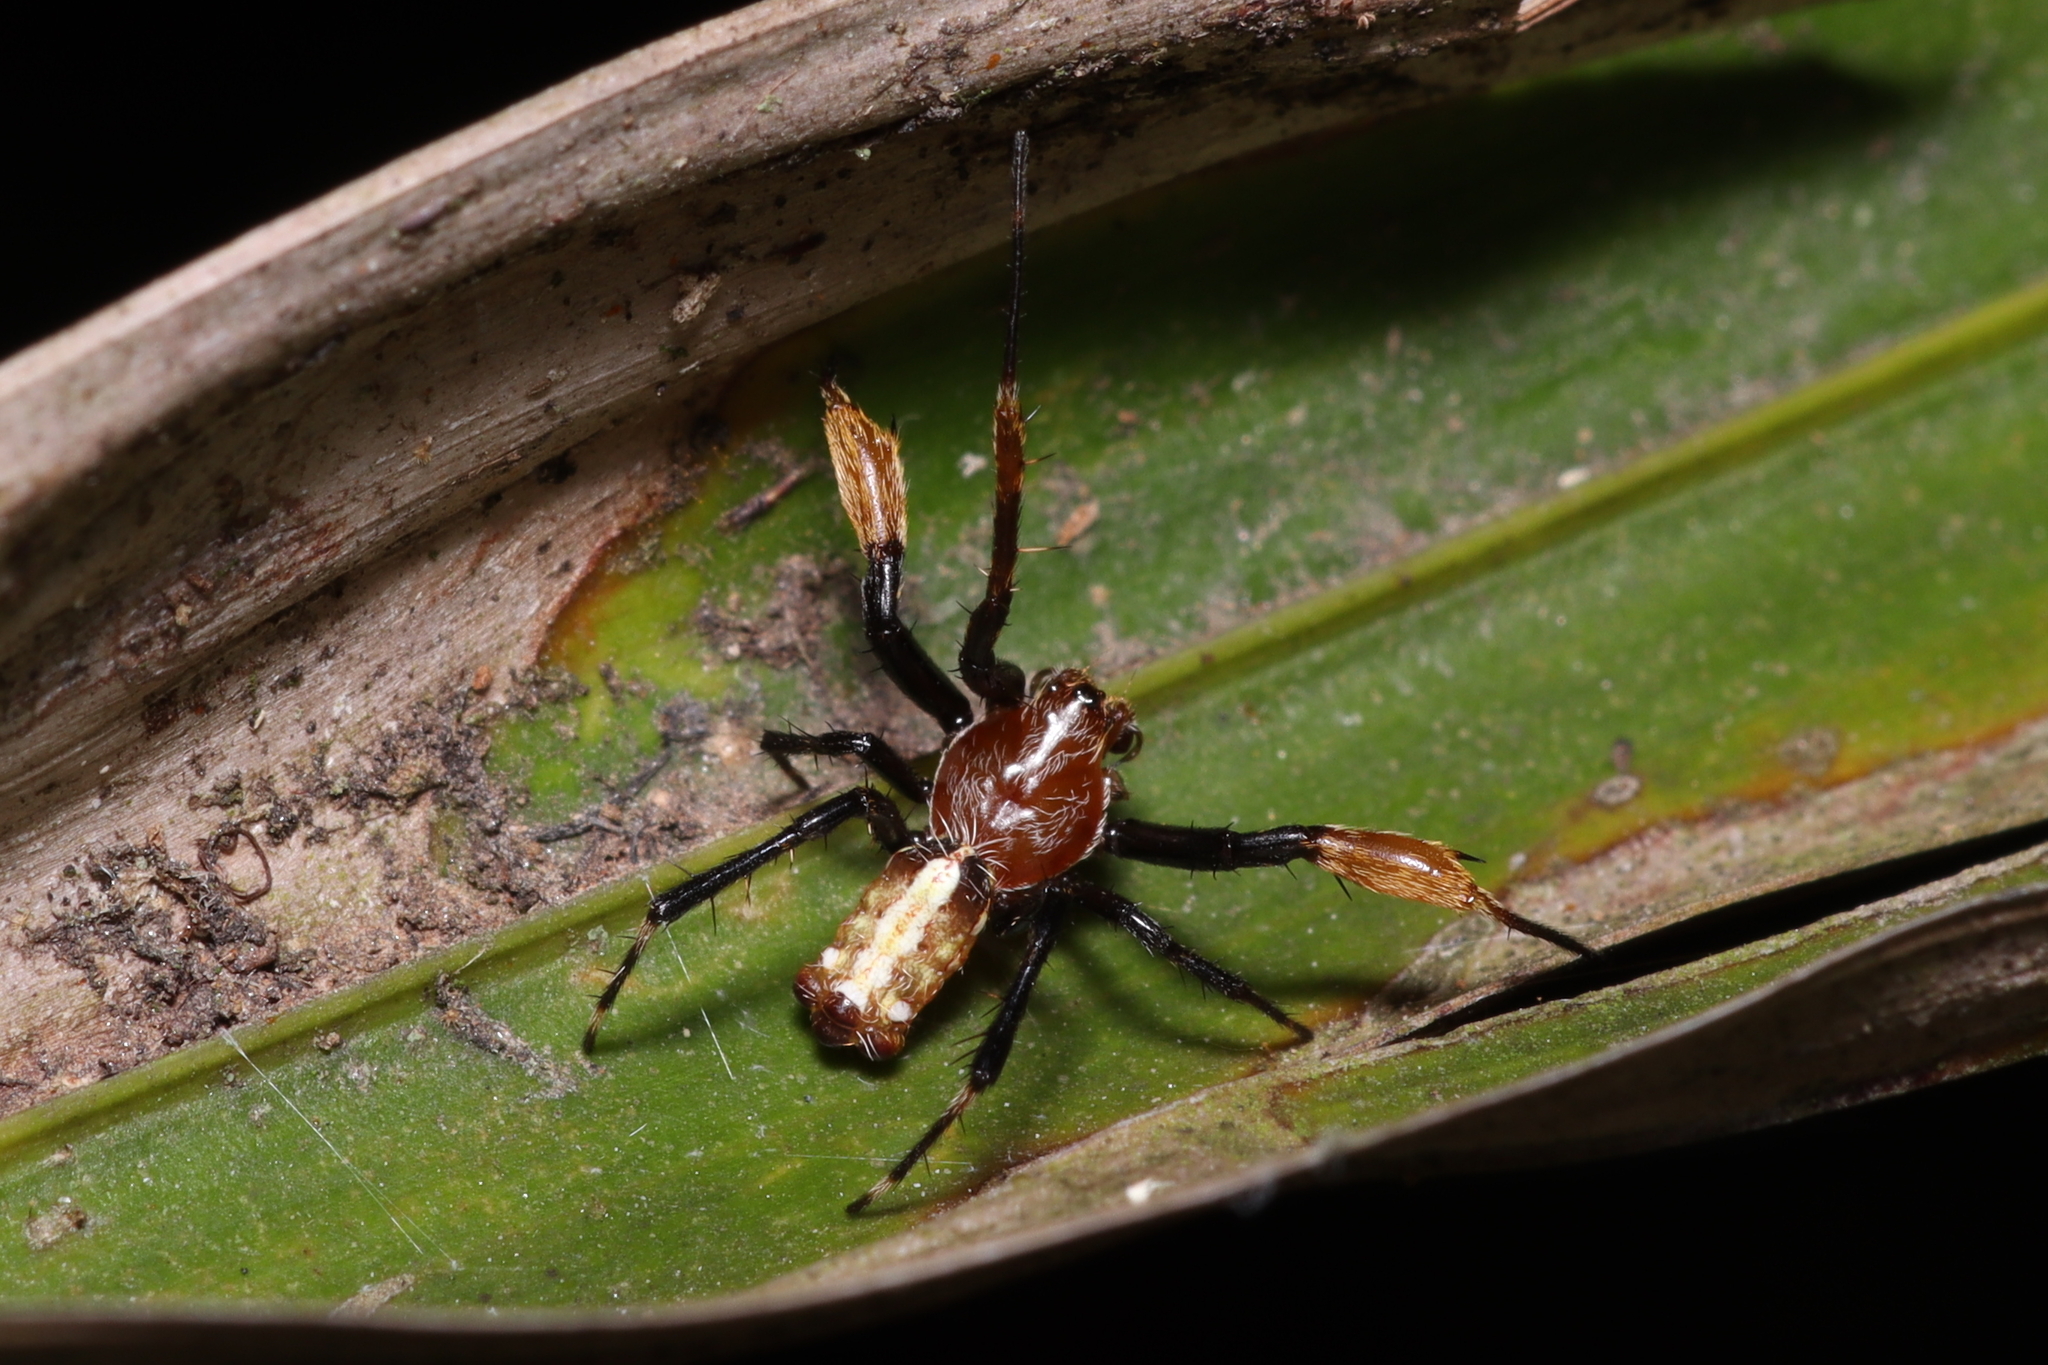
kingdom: Animalia
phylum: Arthropoda
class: Arachnida
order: Araneae
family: Araneidae
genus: Alpaida
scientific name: Alpaida truncata
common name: Orb weavers
